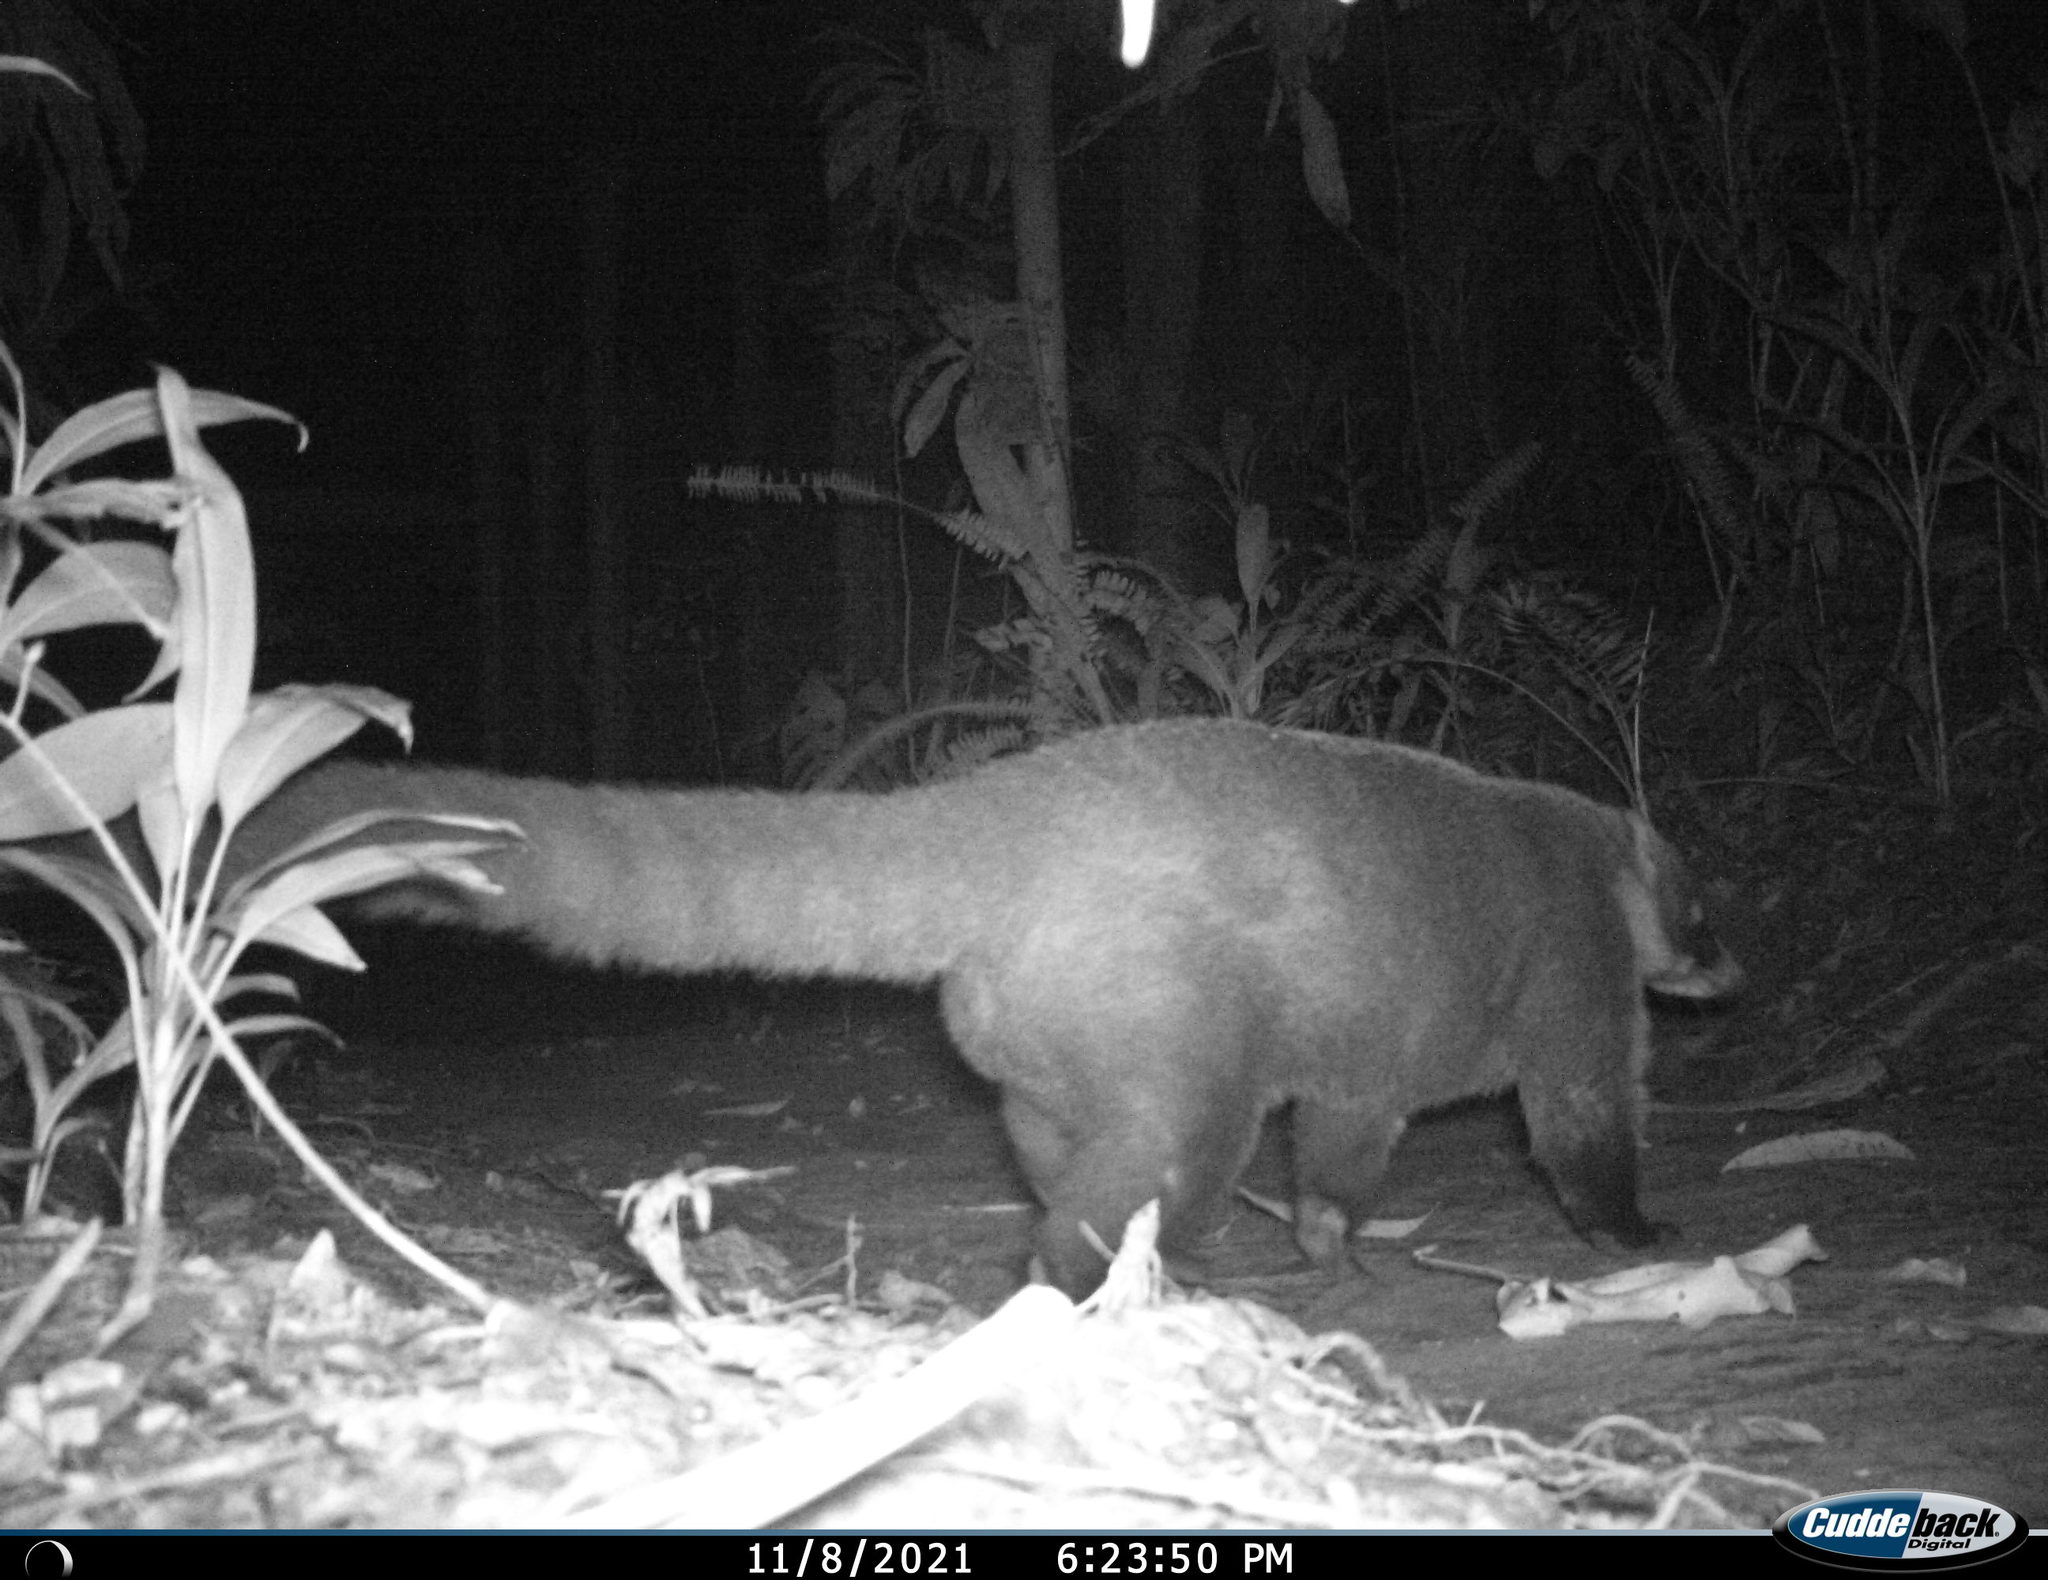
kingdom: Animalia
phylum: Chordata
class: Mammalia
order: Carnivora
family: Procyonidae
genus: Nasua
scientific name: Nasua narica
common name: White-nosed coati
